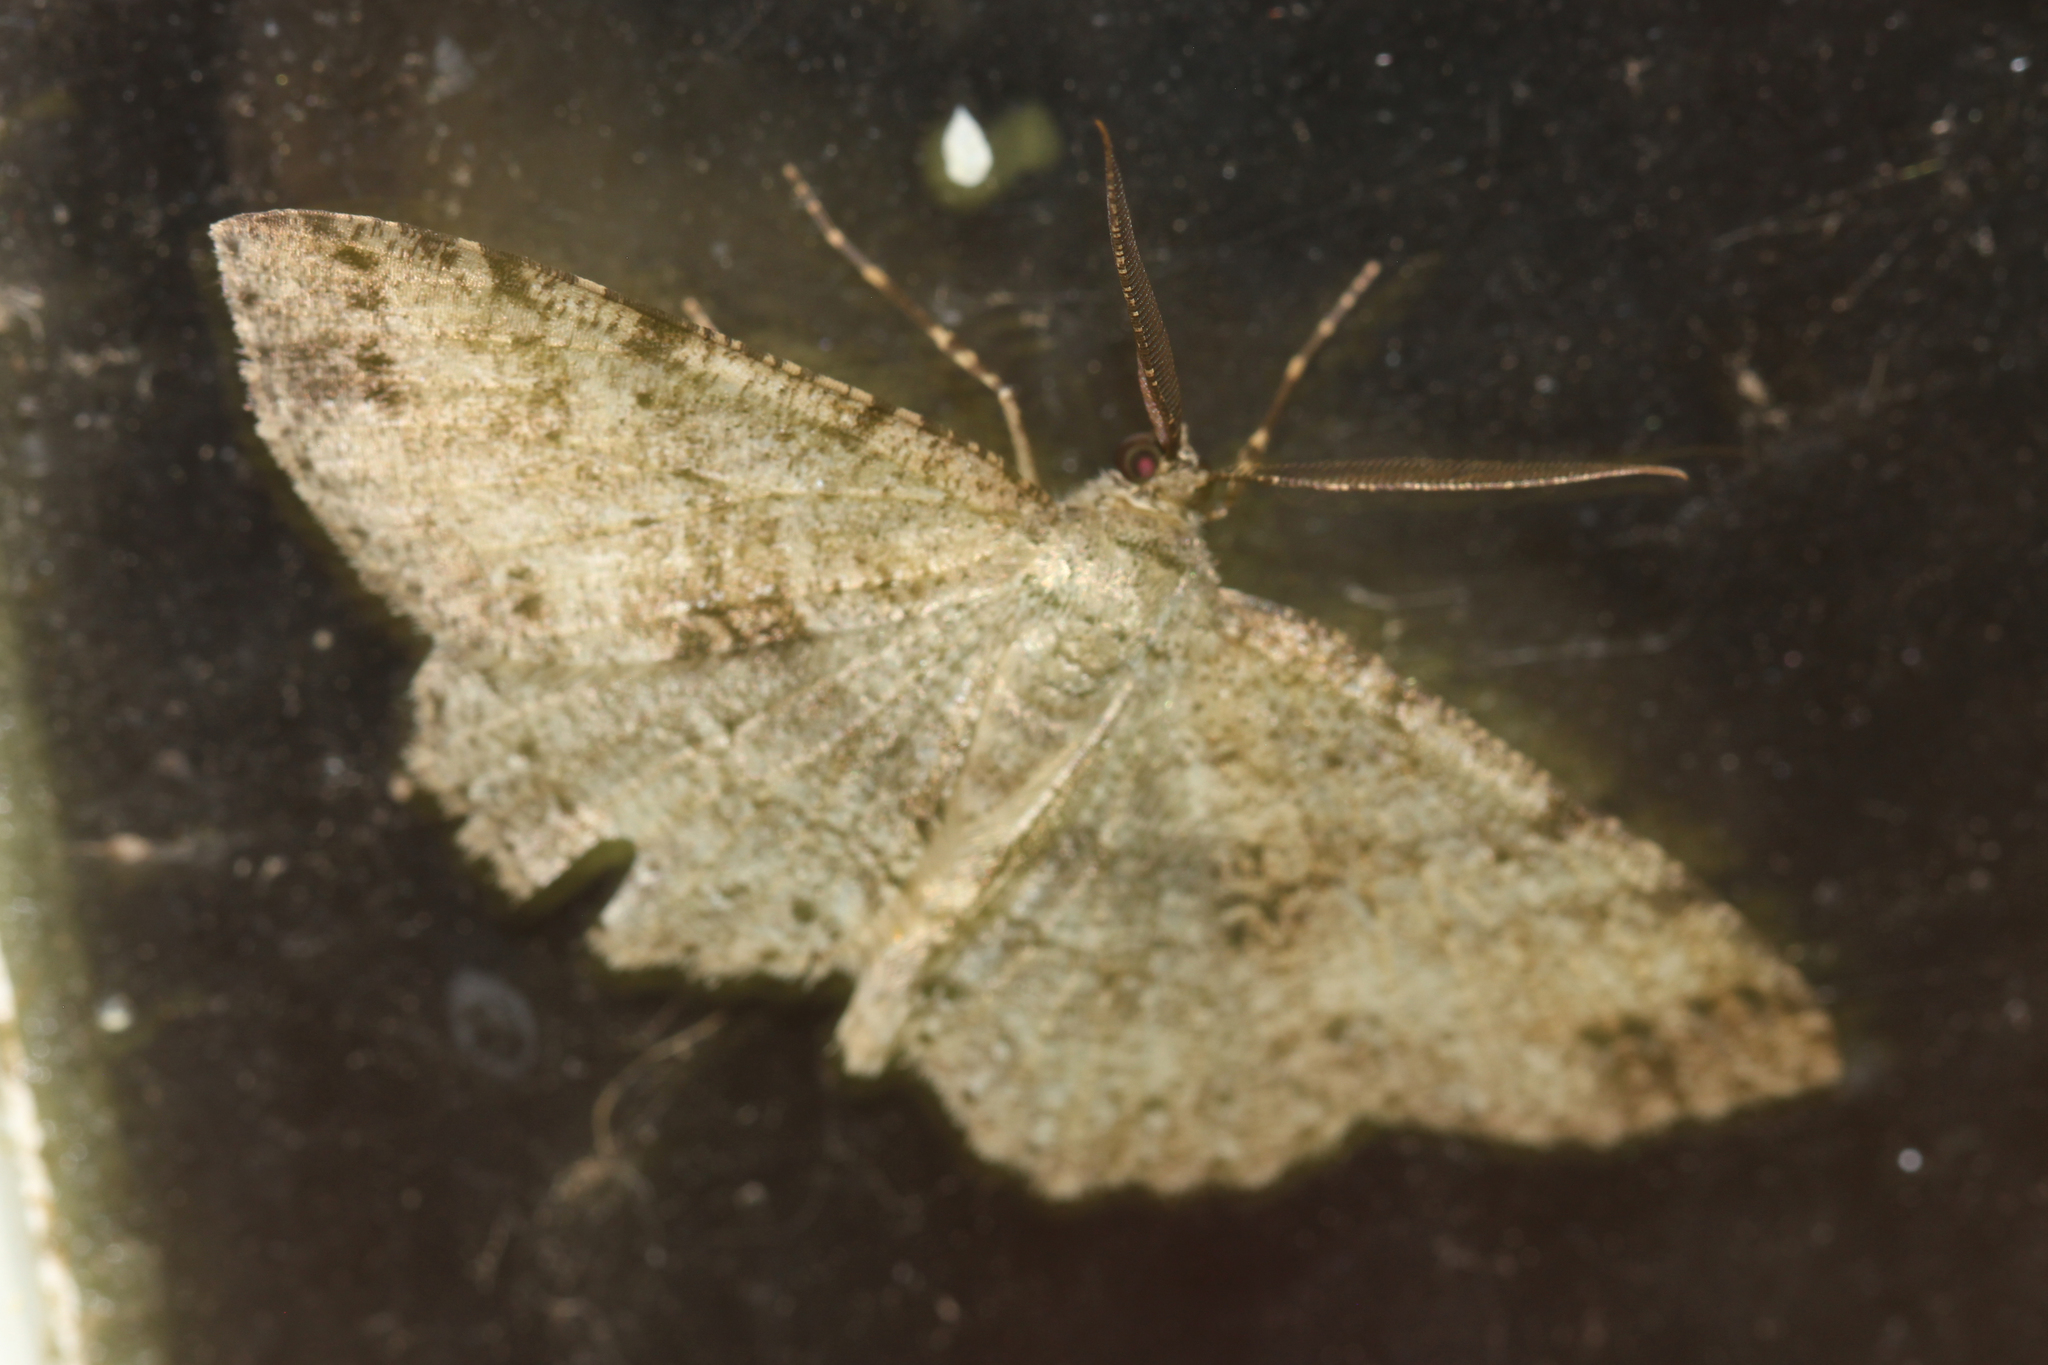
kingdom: Animalia
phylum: Arthropoda
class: Insecta
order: Lepidoptera
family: Geometridae
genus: Melanolophia
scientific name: Melanolophia canadaria
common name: Canadian melanolophia
